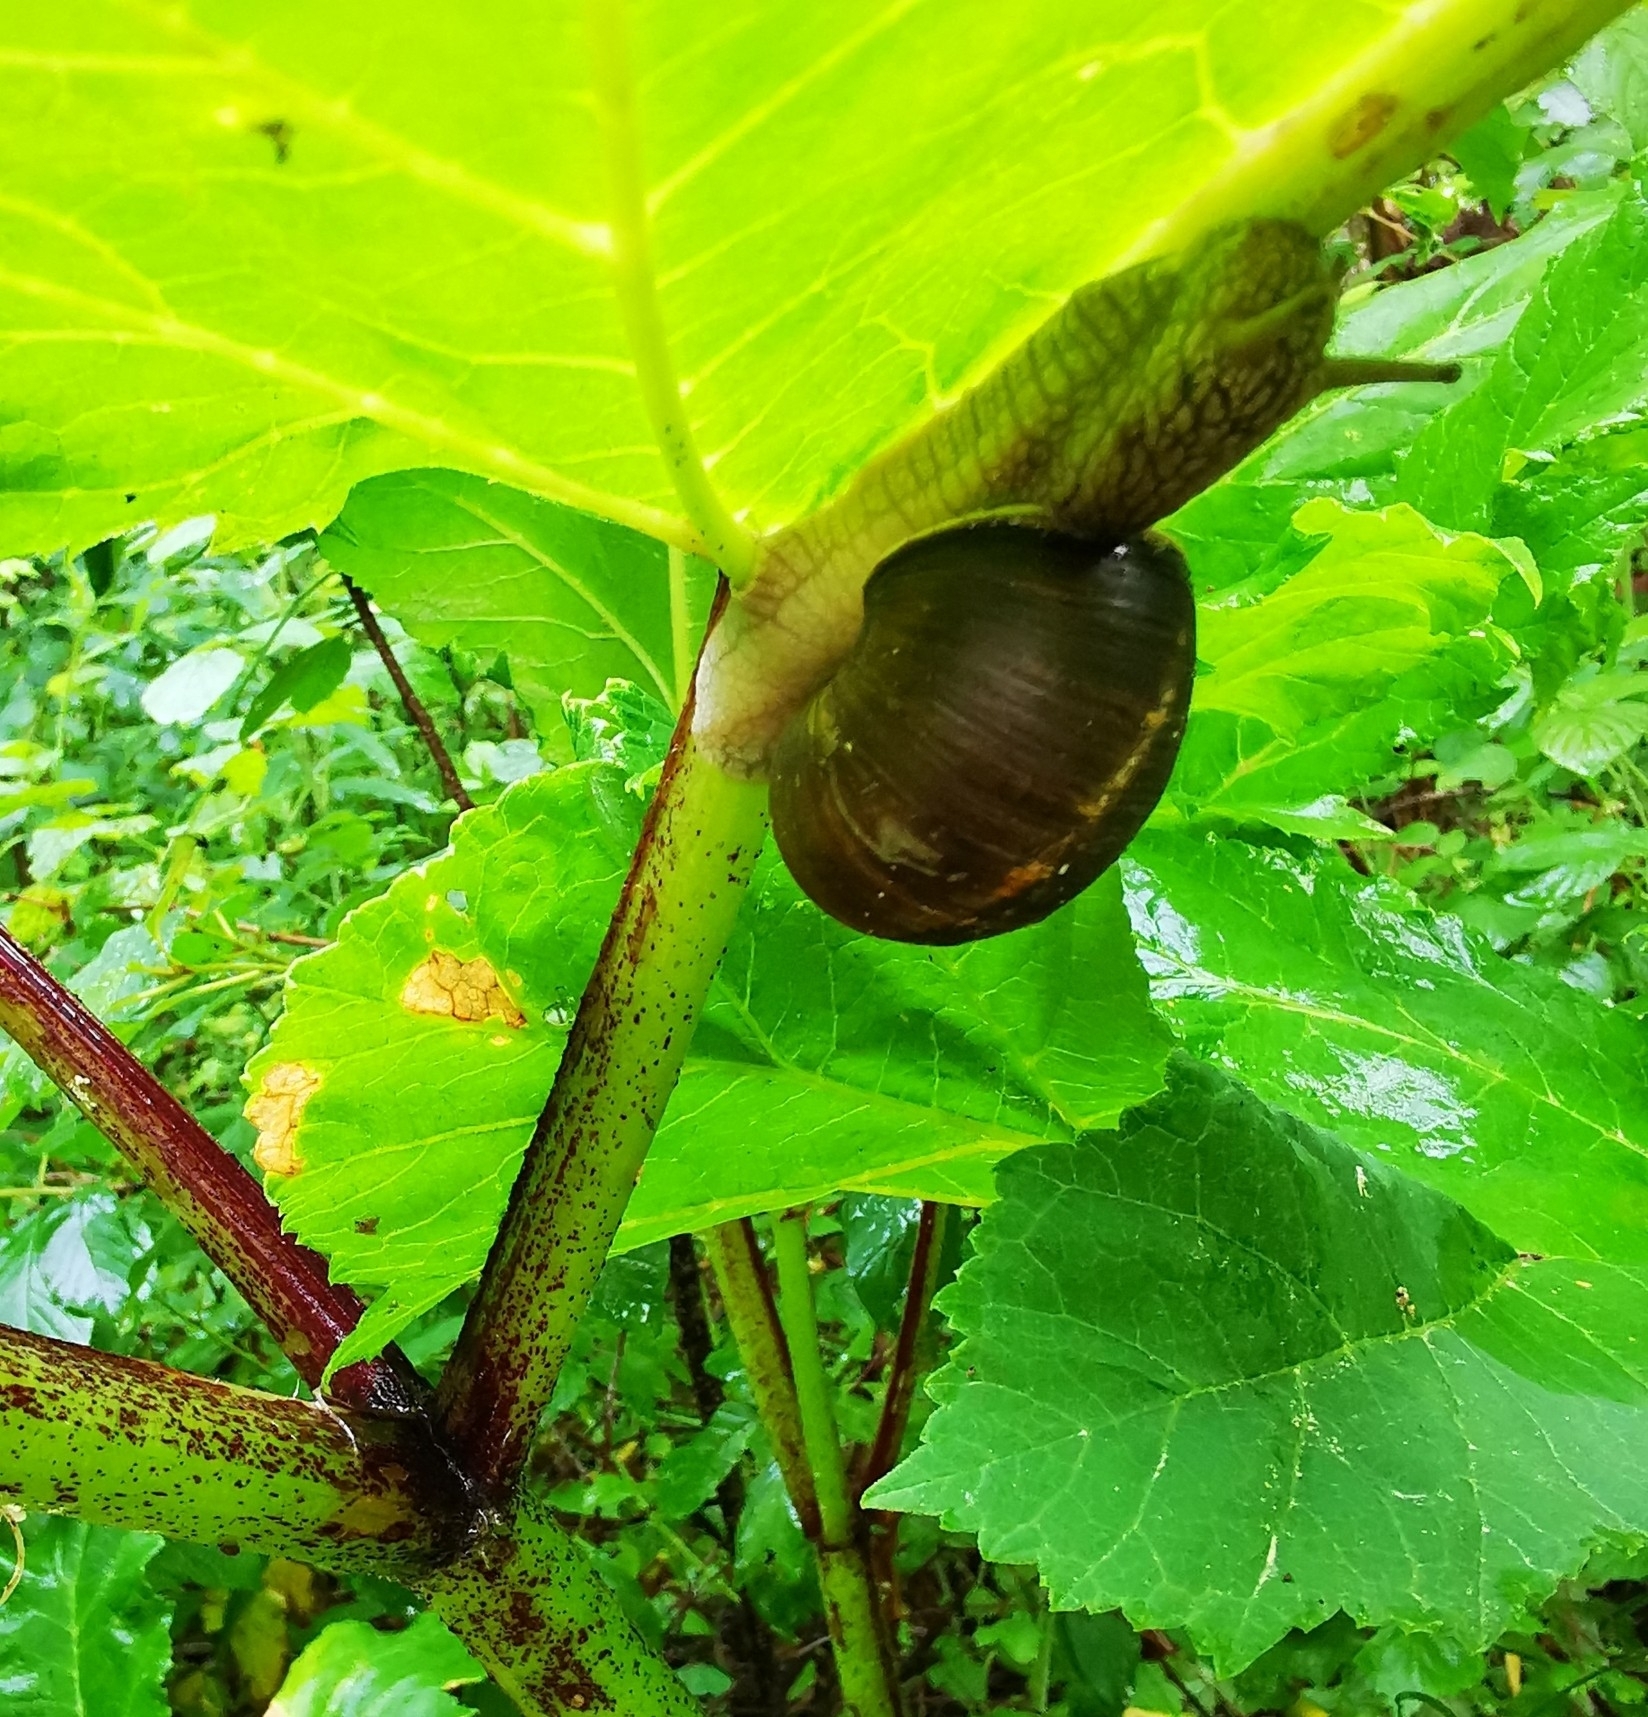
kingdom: Animalia
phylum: Mollusca
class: Gastropoda
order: Stylommatophora
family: Helicidae
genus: Helix
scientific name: Helix pomatia
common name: Roman snail
